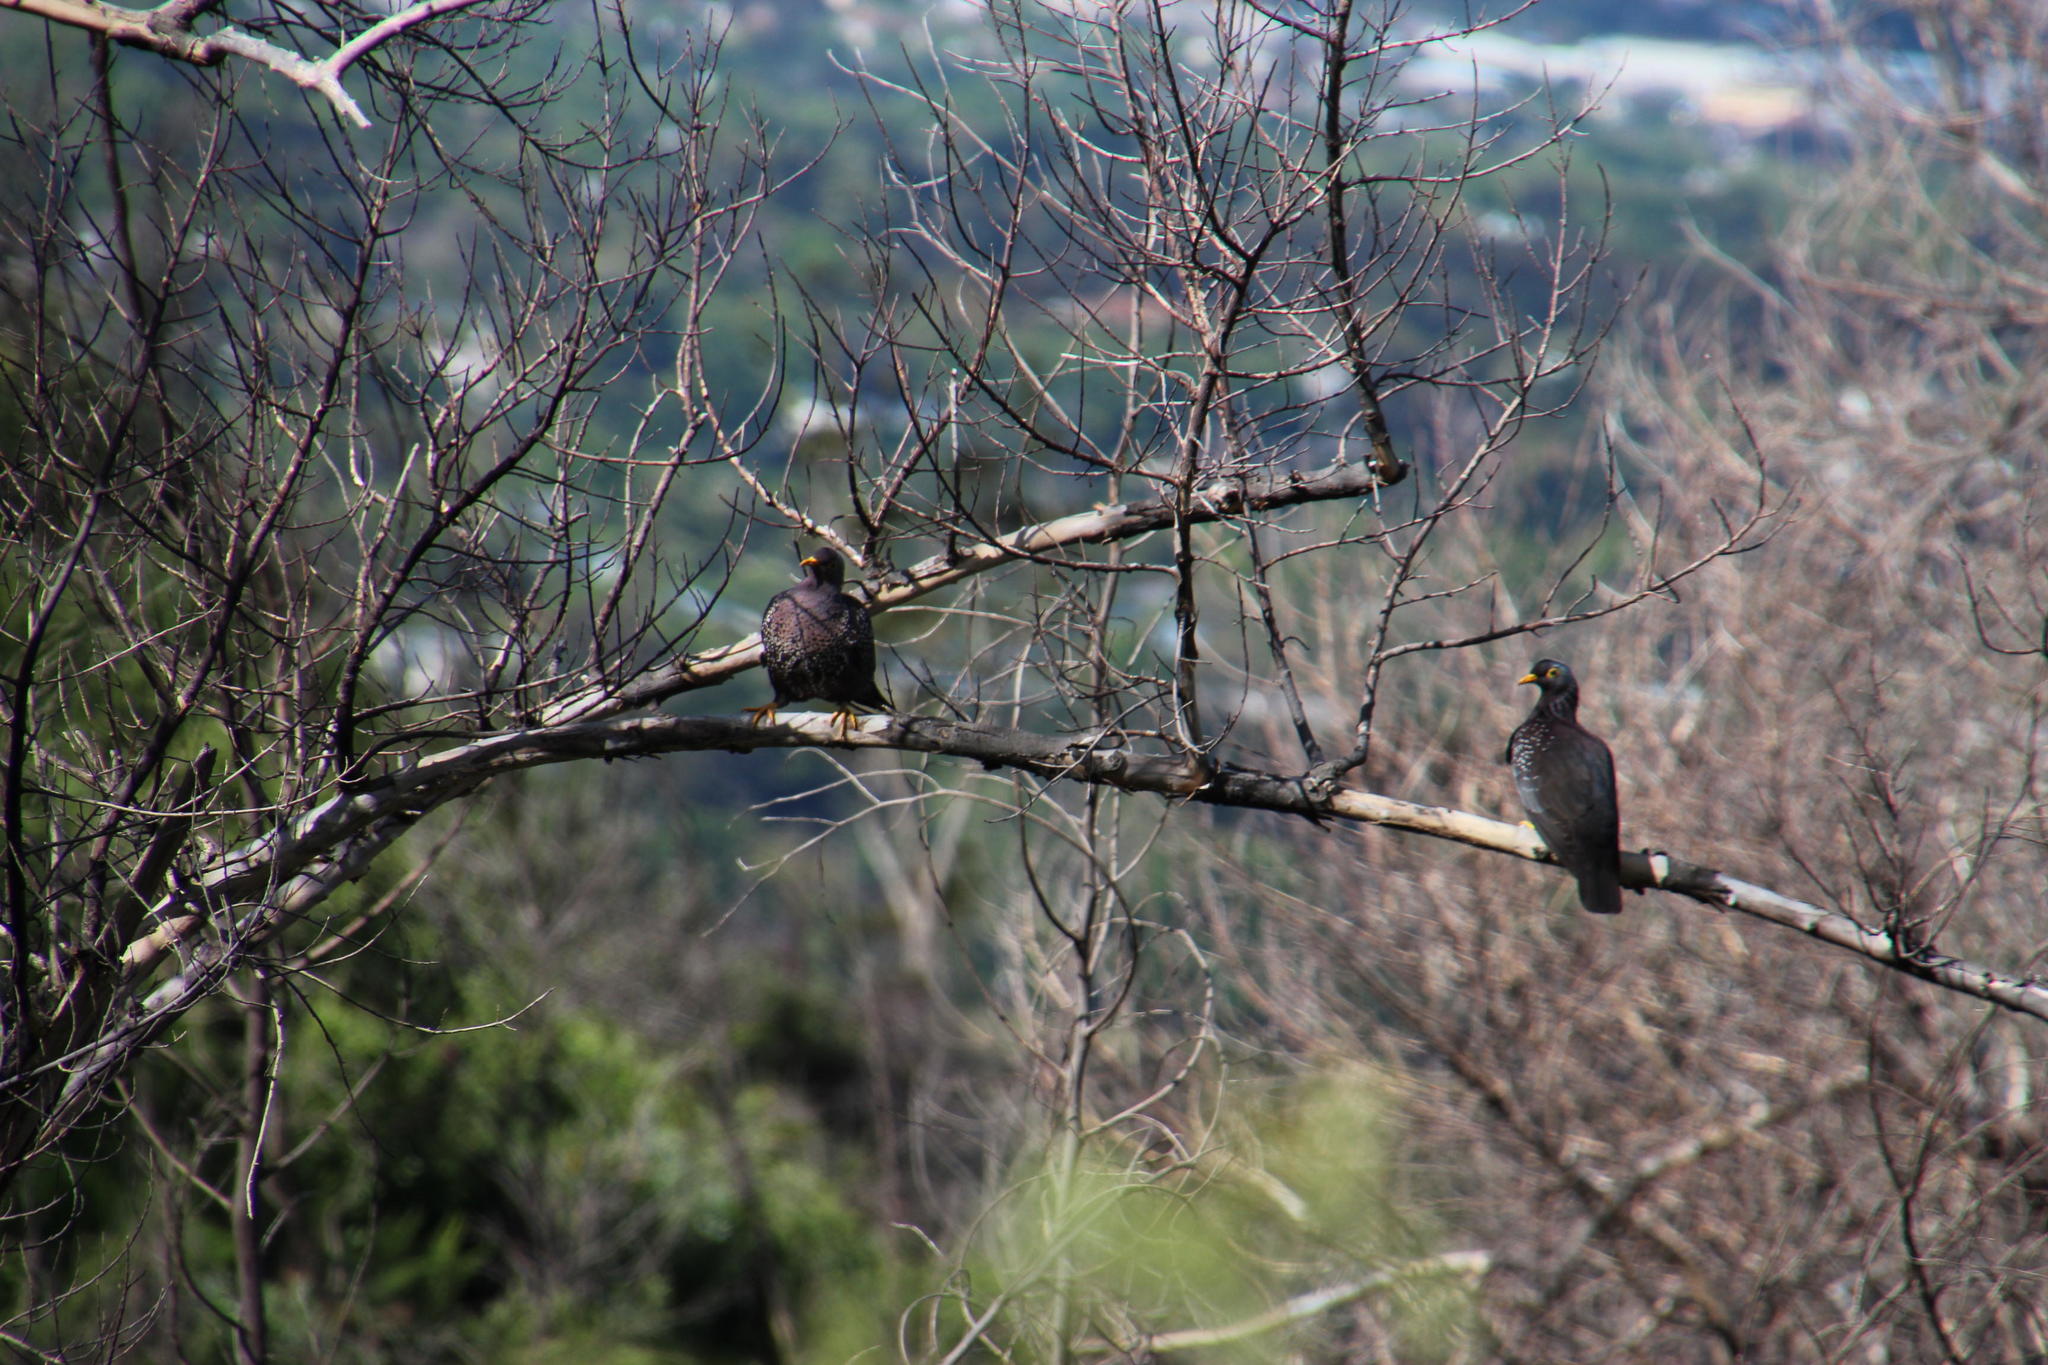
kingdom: Animalia
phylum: Chordata
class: Aves
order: Columbiformes
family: Columbidae
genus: Columba
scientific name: Columba arquatrix
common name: African olive pigeon
